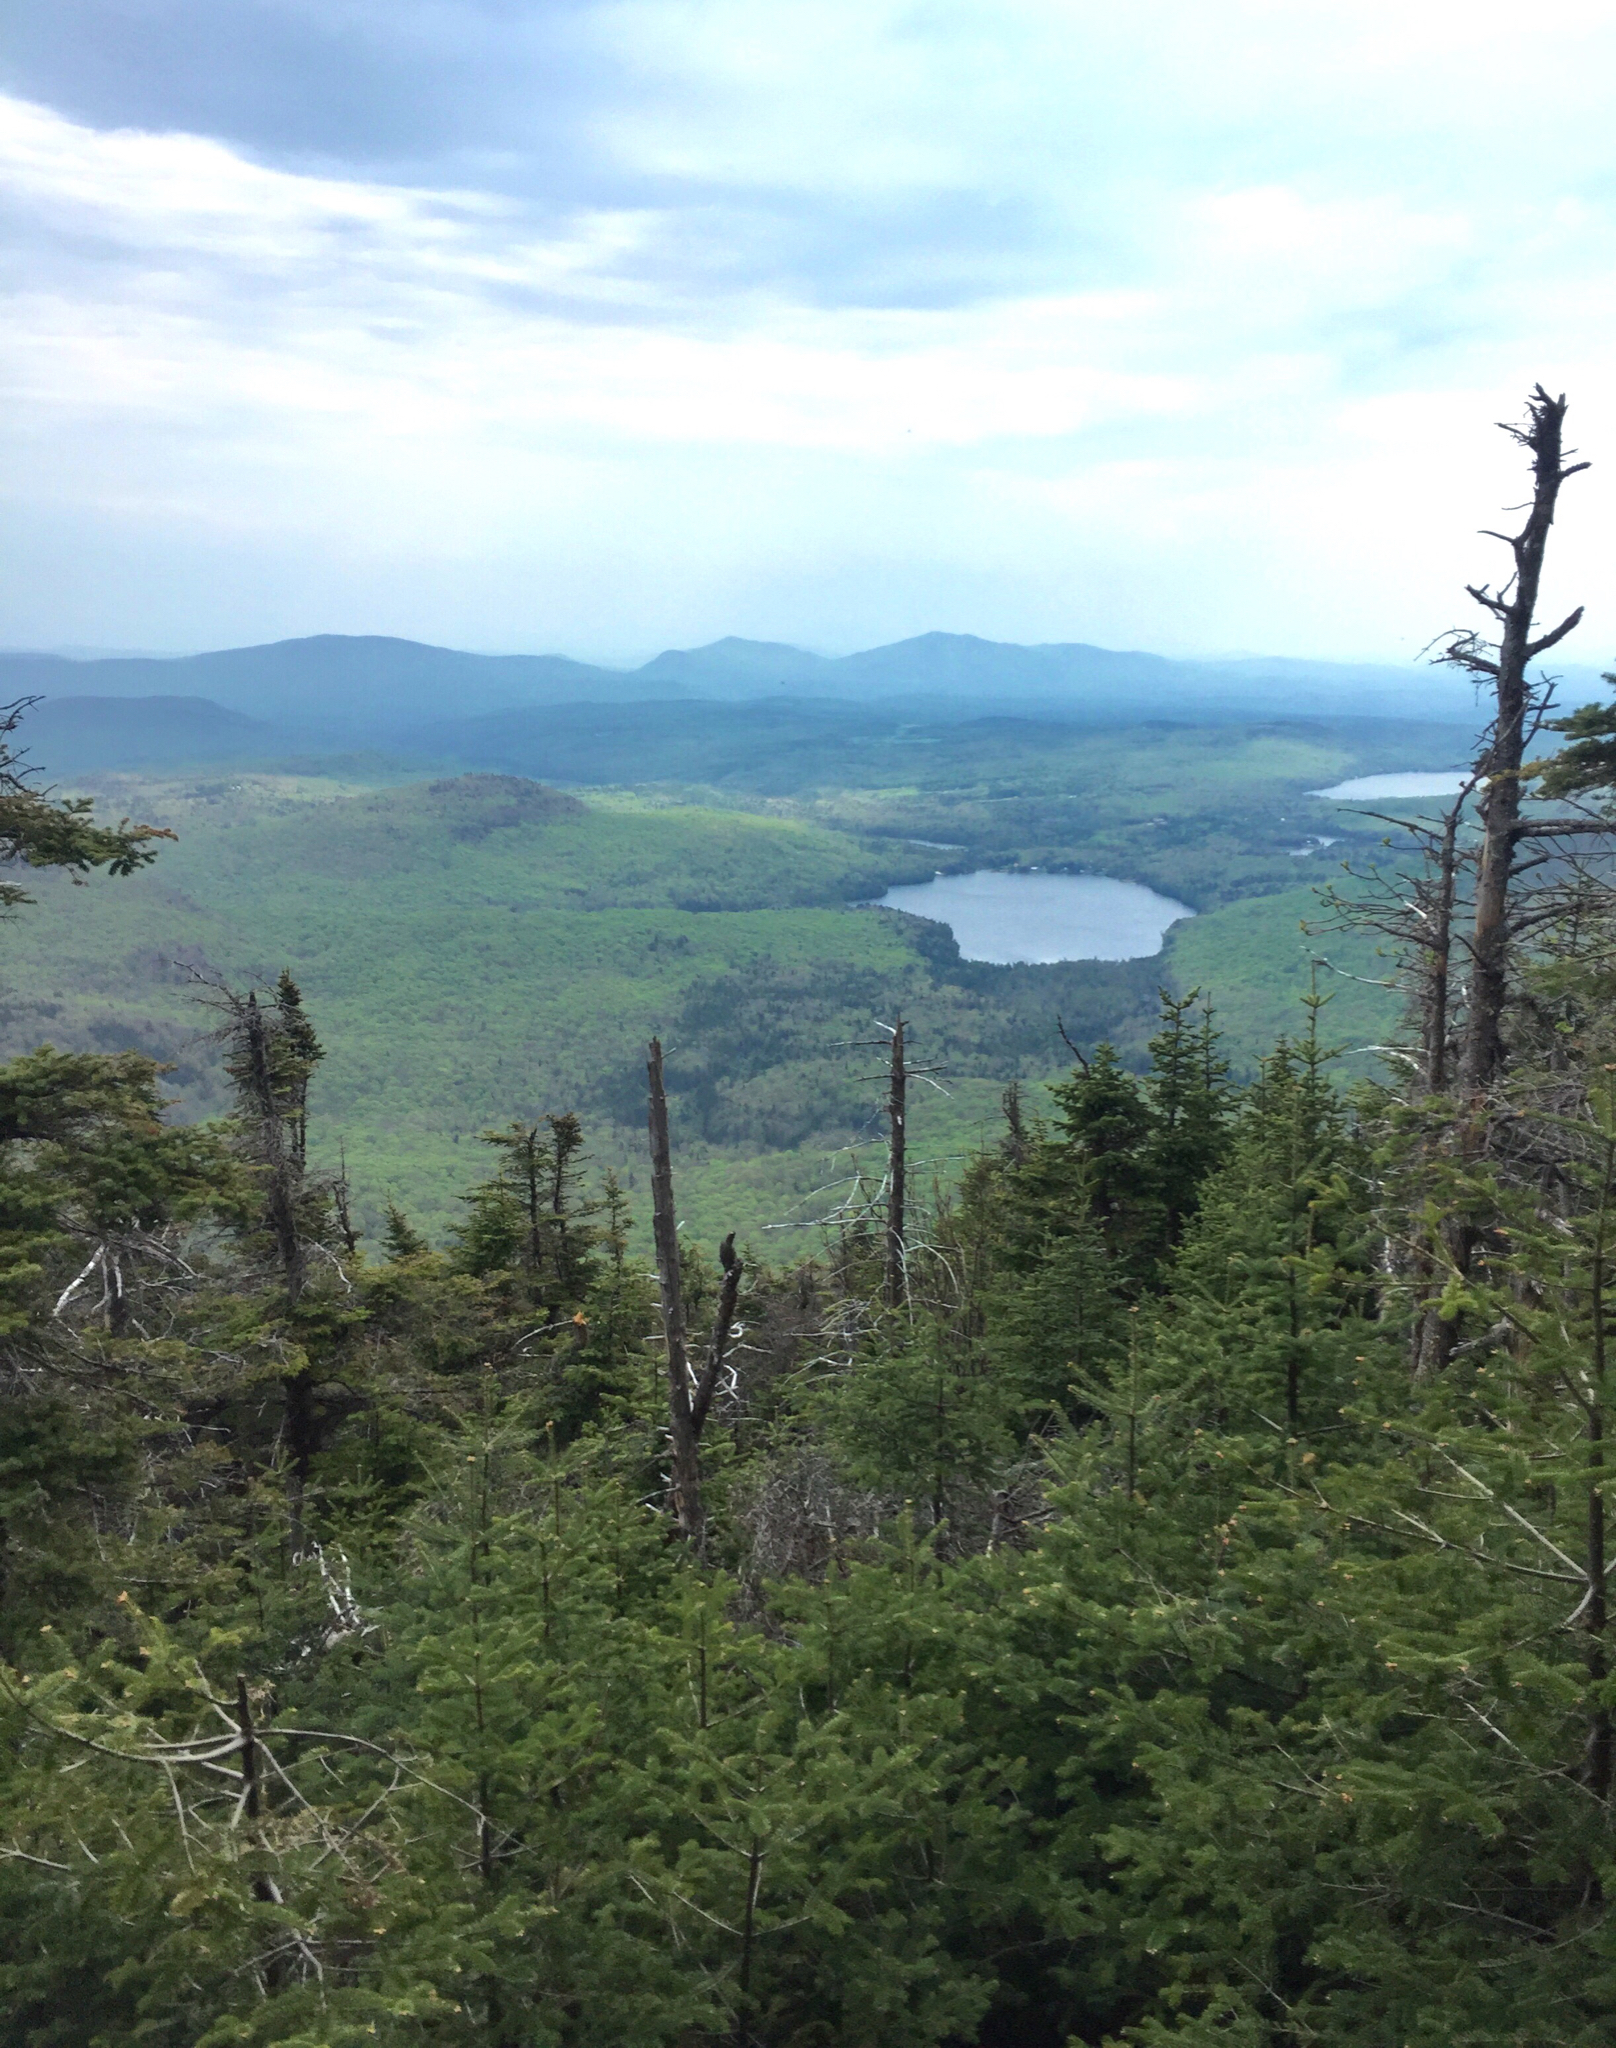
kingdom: Plantae
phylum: Tracheophyta
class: Pinopsida
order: Pinales
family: Pinaceae
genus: Abies
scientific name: Abies balsamea
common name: Balsam fir
